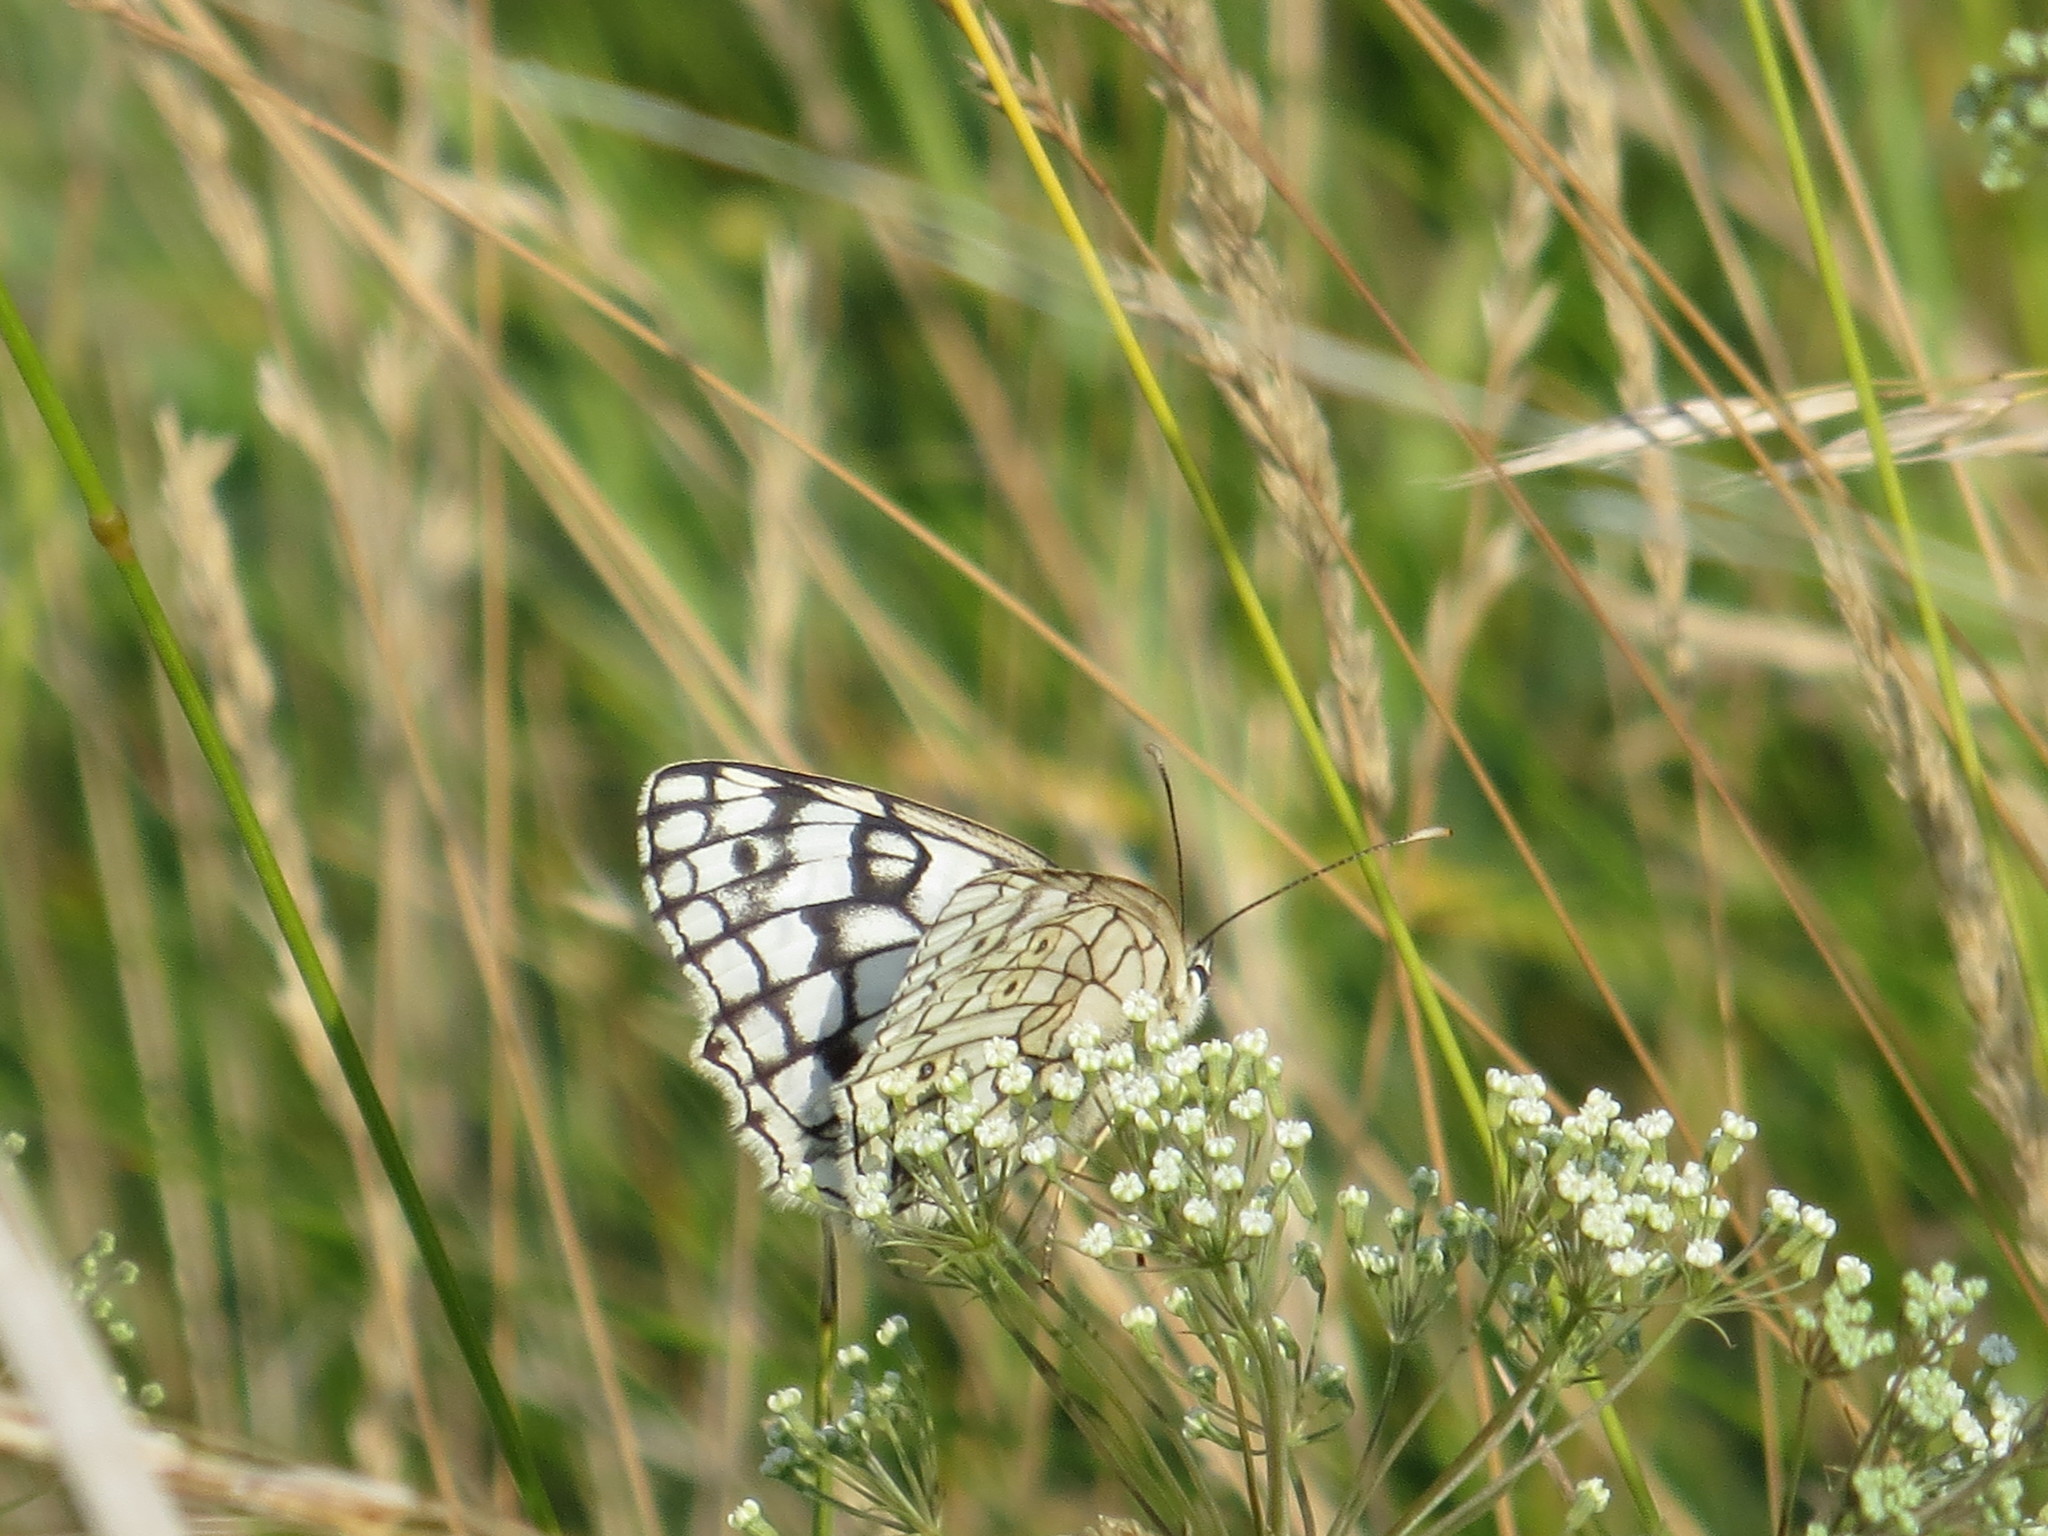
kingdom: Animalia
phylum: Arthropoda
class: Insecta
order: Lepidoptera
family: Nymphalidae
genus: Melanargia
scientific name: Melanargia japygia
